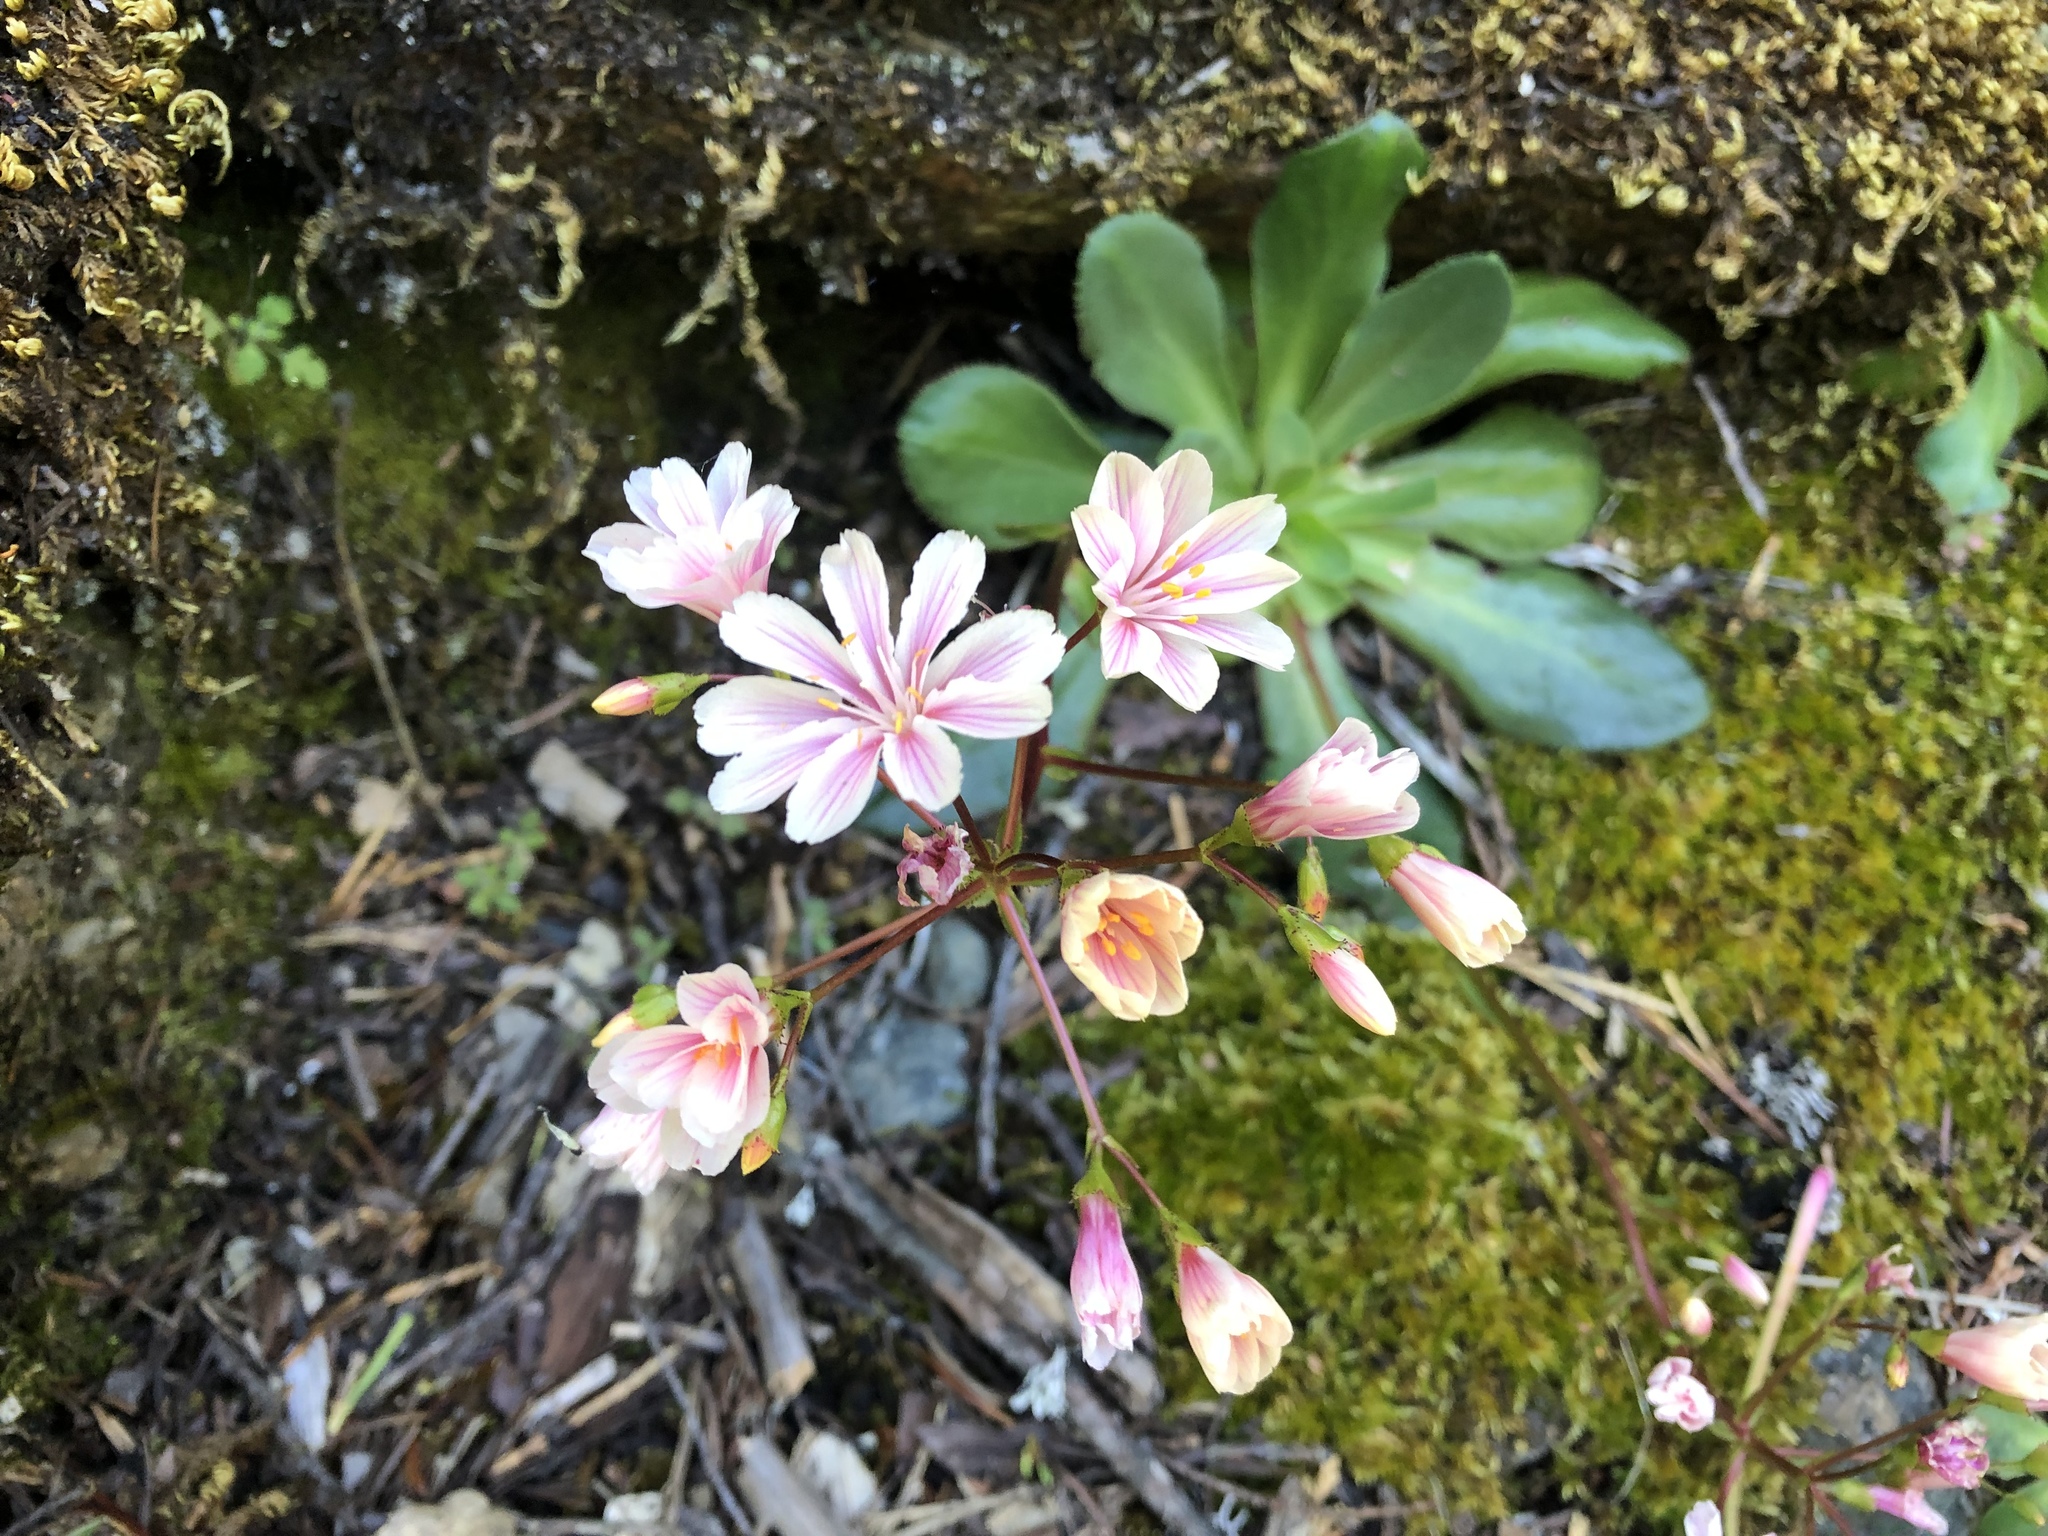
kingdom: Plantae
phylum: Tracheophyta
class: Magnoliopsida
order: Caryophyllales
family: Montiaceae
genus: Lewisia
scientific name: Lewisia cotyledon
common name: Siskiyou lewisia
